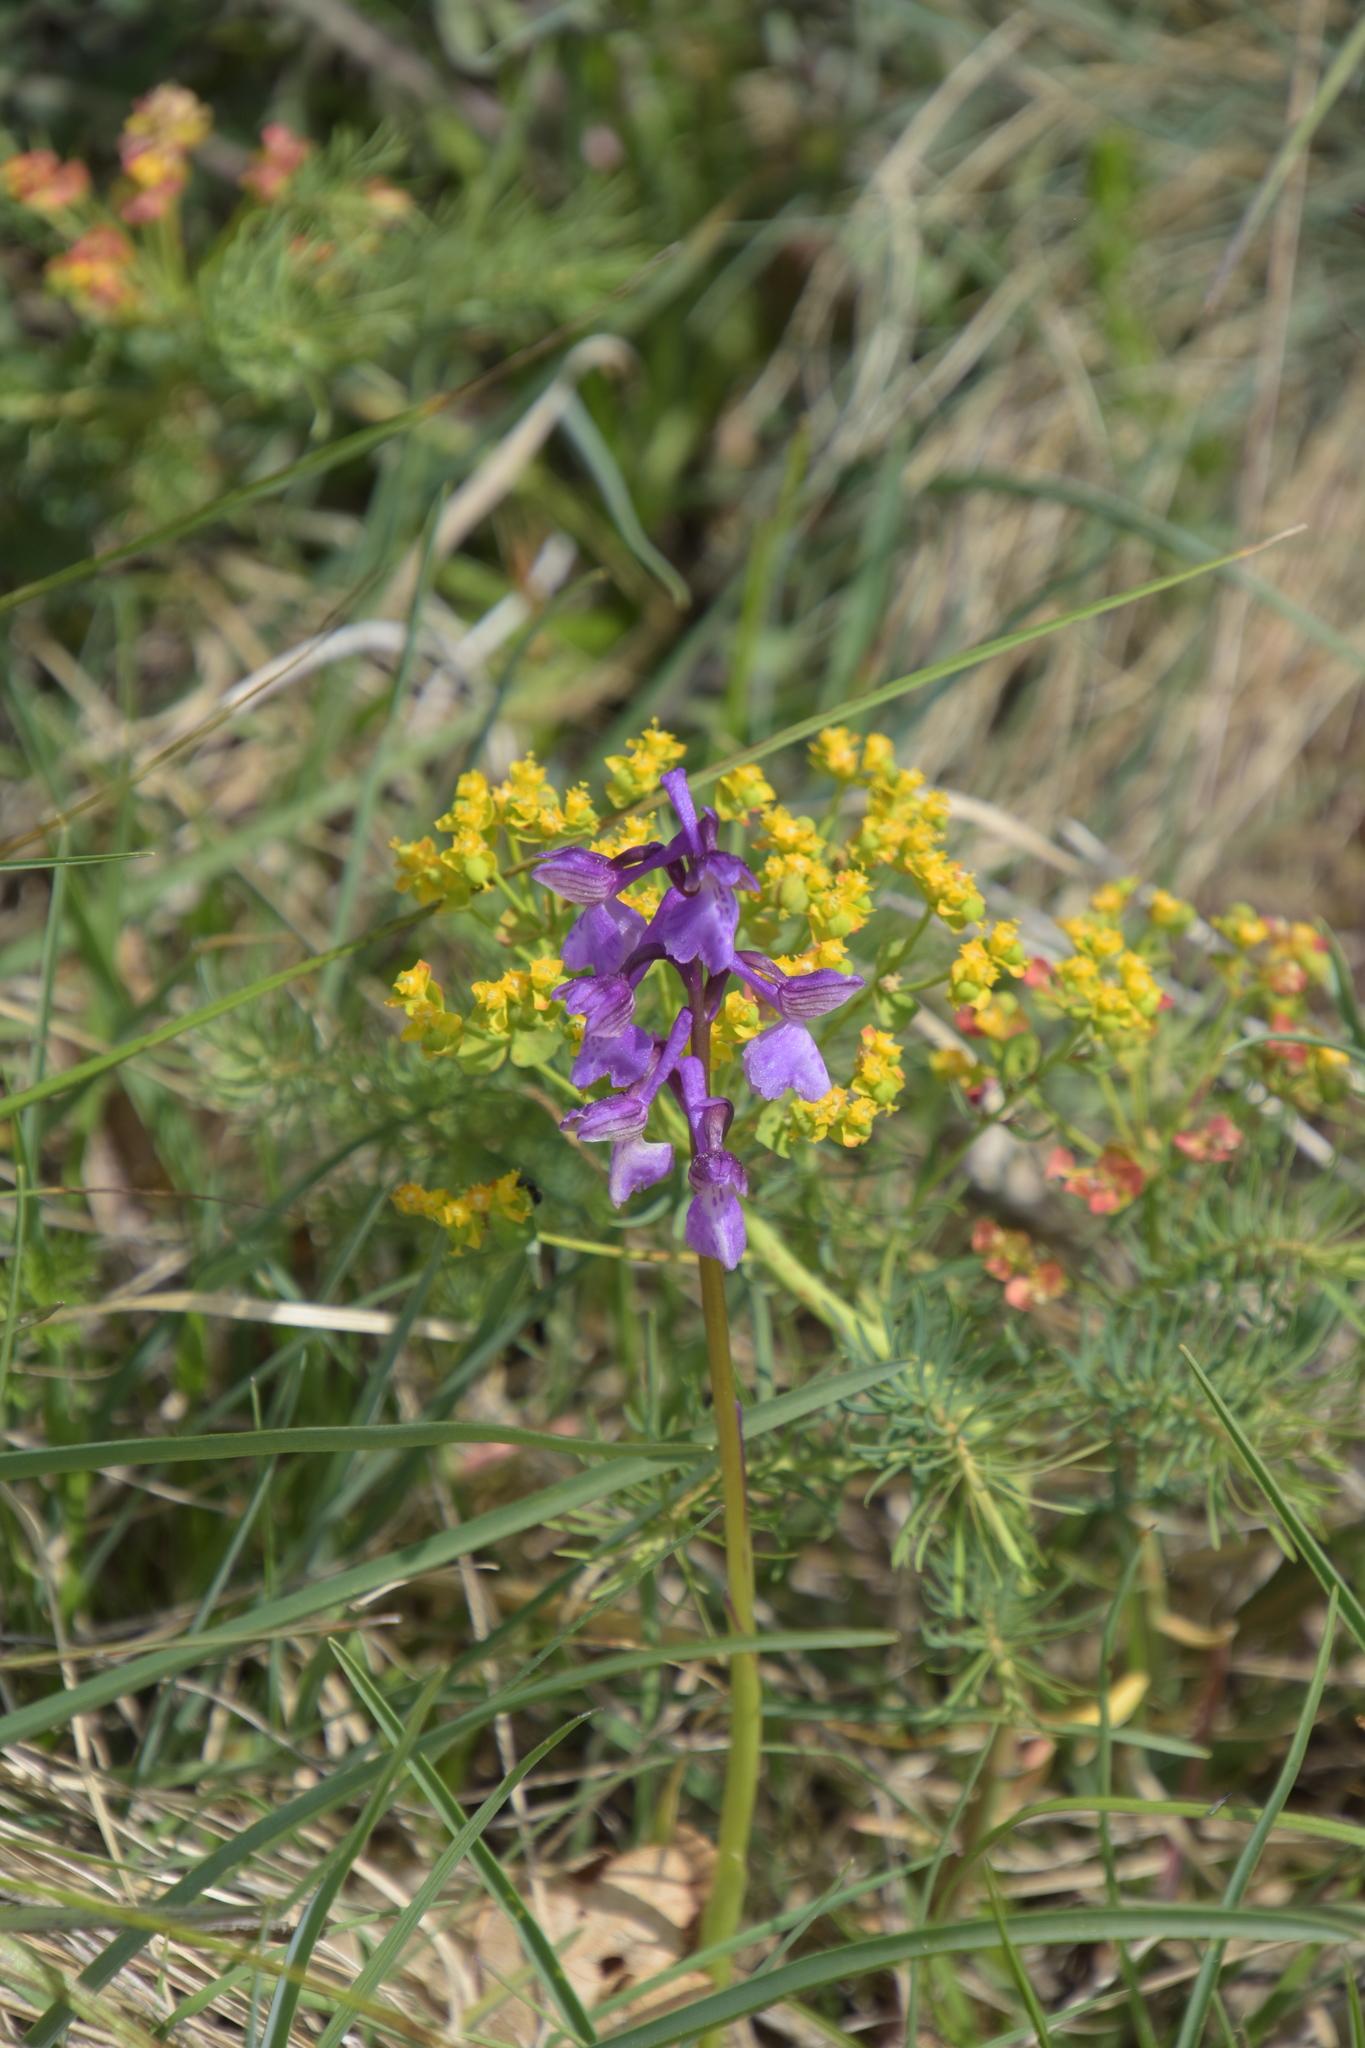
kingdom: Plantae
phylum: Tracheophyta
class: Liliopsida
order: Asparagales
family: Orchidaceae
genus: Anacamptis
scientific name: Anacamptis morio
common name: Green-winged orchid
